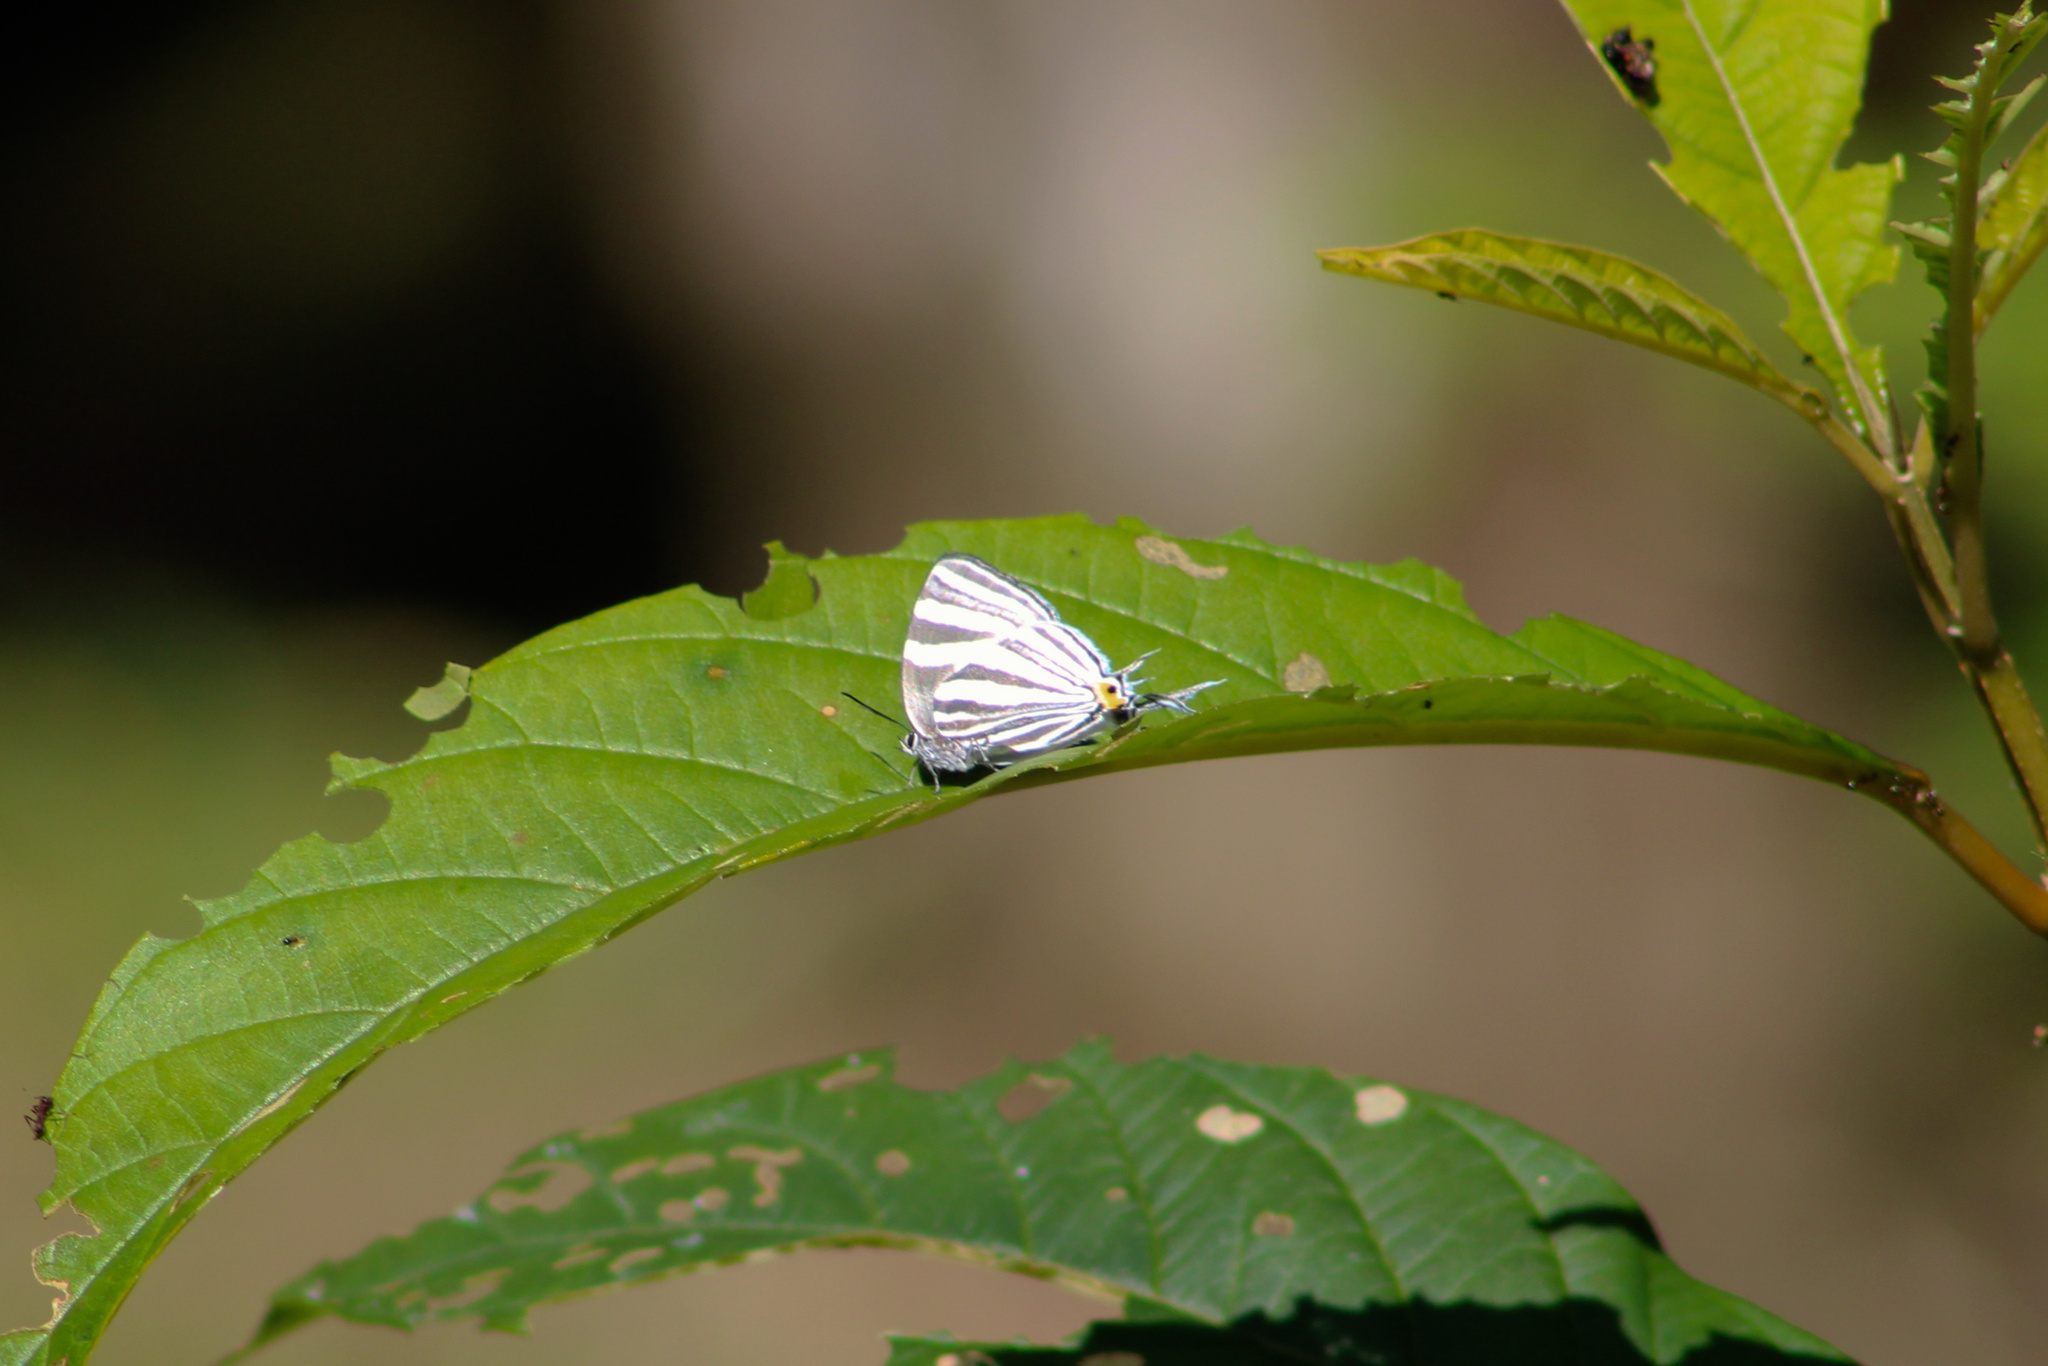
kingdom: Animalia
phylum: Arthropoda
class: Insecta
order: Lepidoptera
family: Lycaenidae
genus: Laothus
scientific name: Laothus
